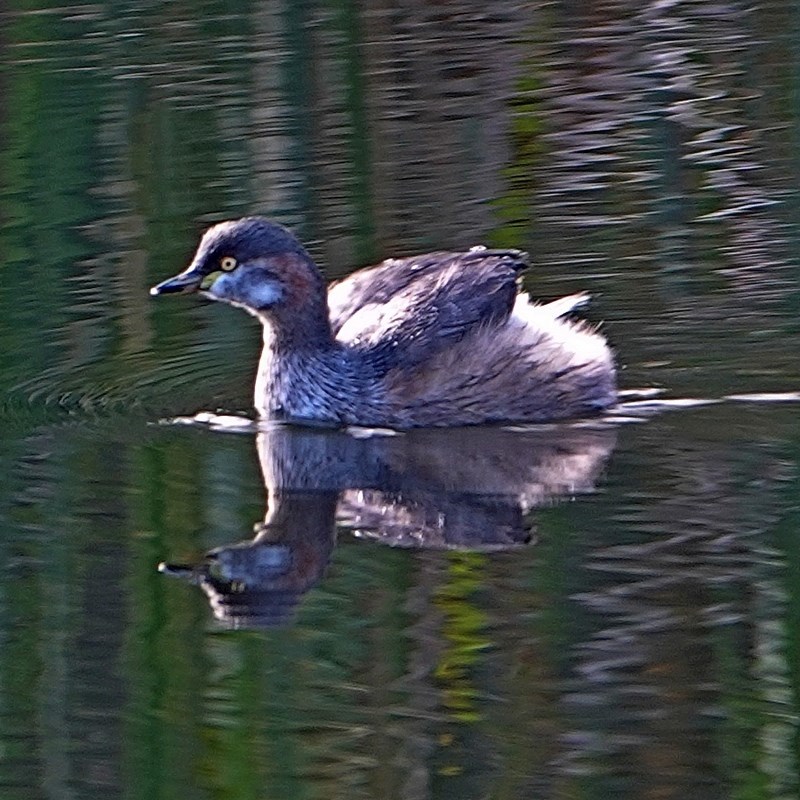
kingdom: Animalia
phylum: Chordata
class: Aves
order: Podicipediformes
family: Podicipedidae
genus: Tachybaptus
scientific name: Tachybaptus novaehollandiae
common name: Australasian grebe
